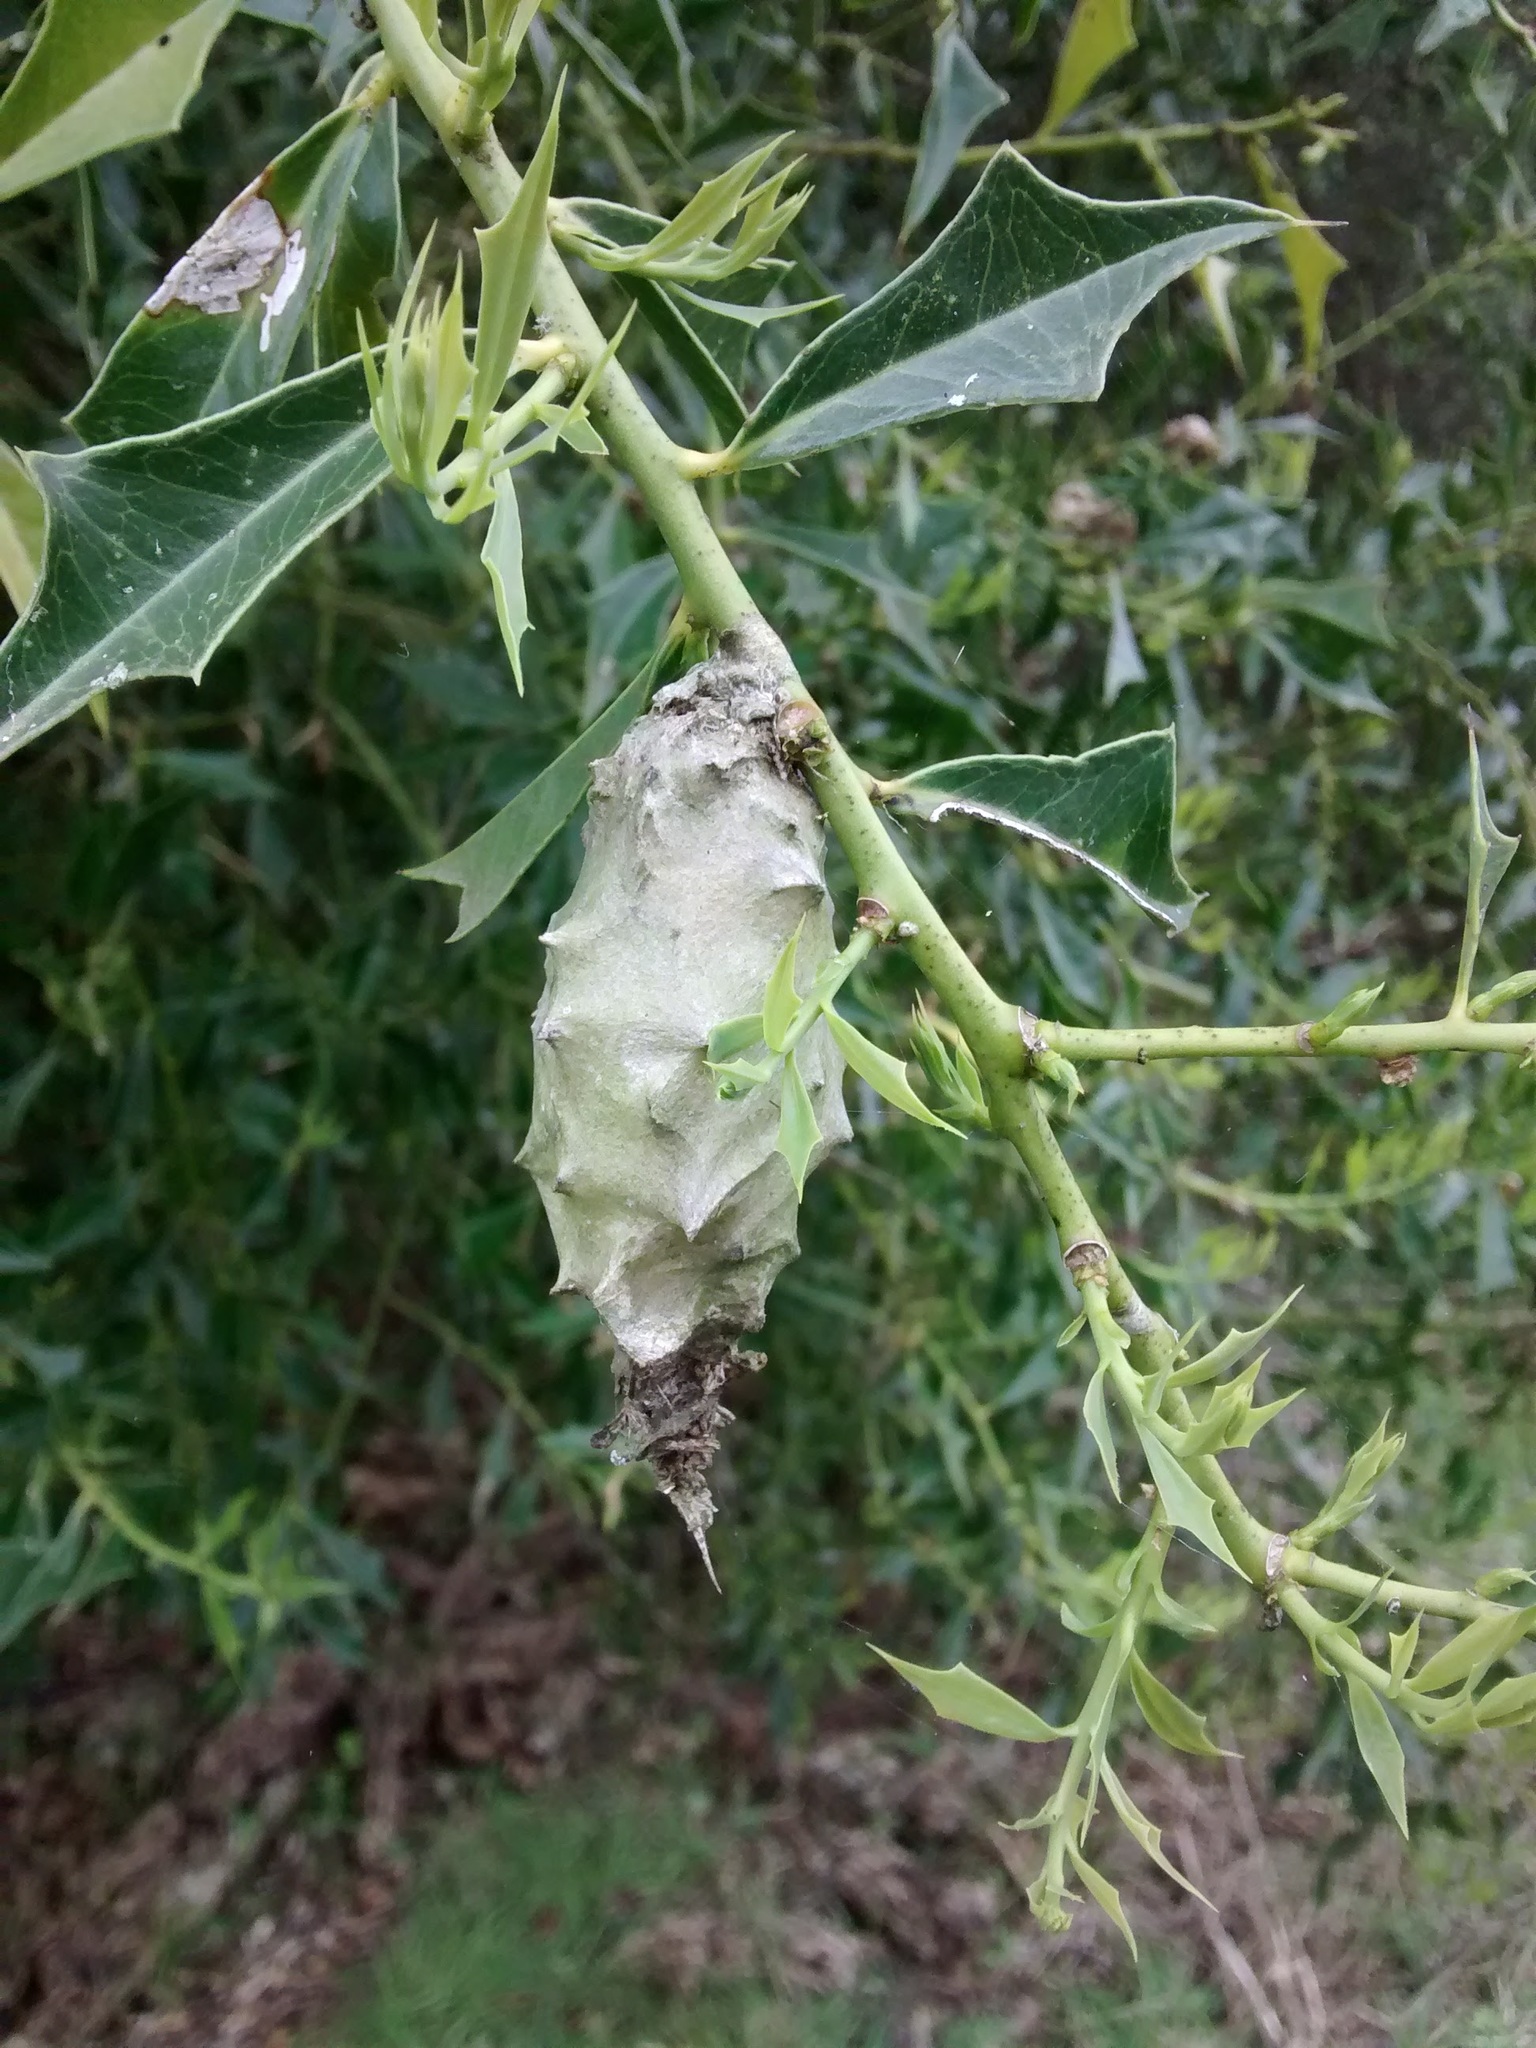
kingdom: Animalia
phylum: Arthropoda
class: Insecta
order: Lepidoptera
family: Psychidae
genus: Oiketicus
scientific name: Oiketicus
